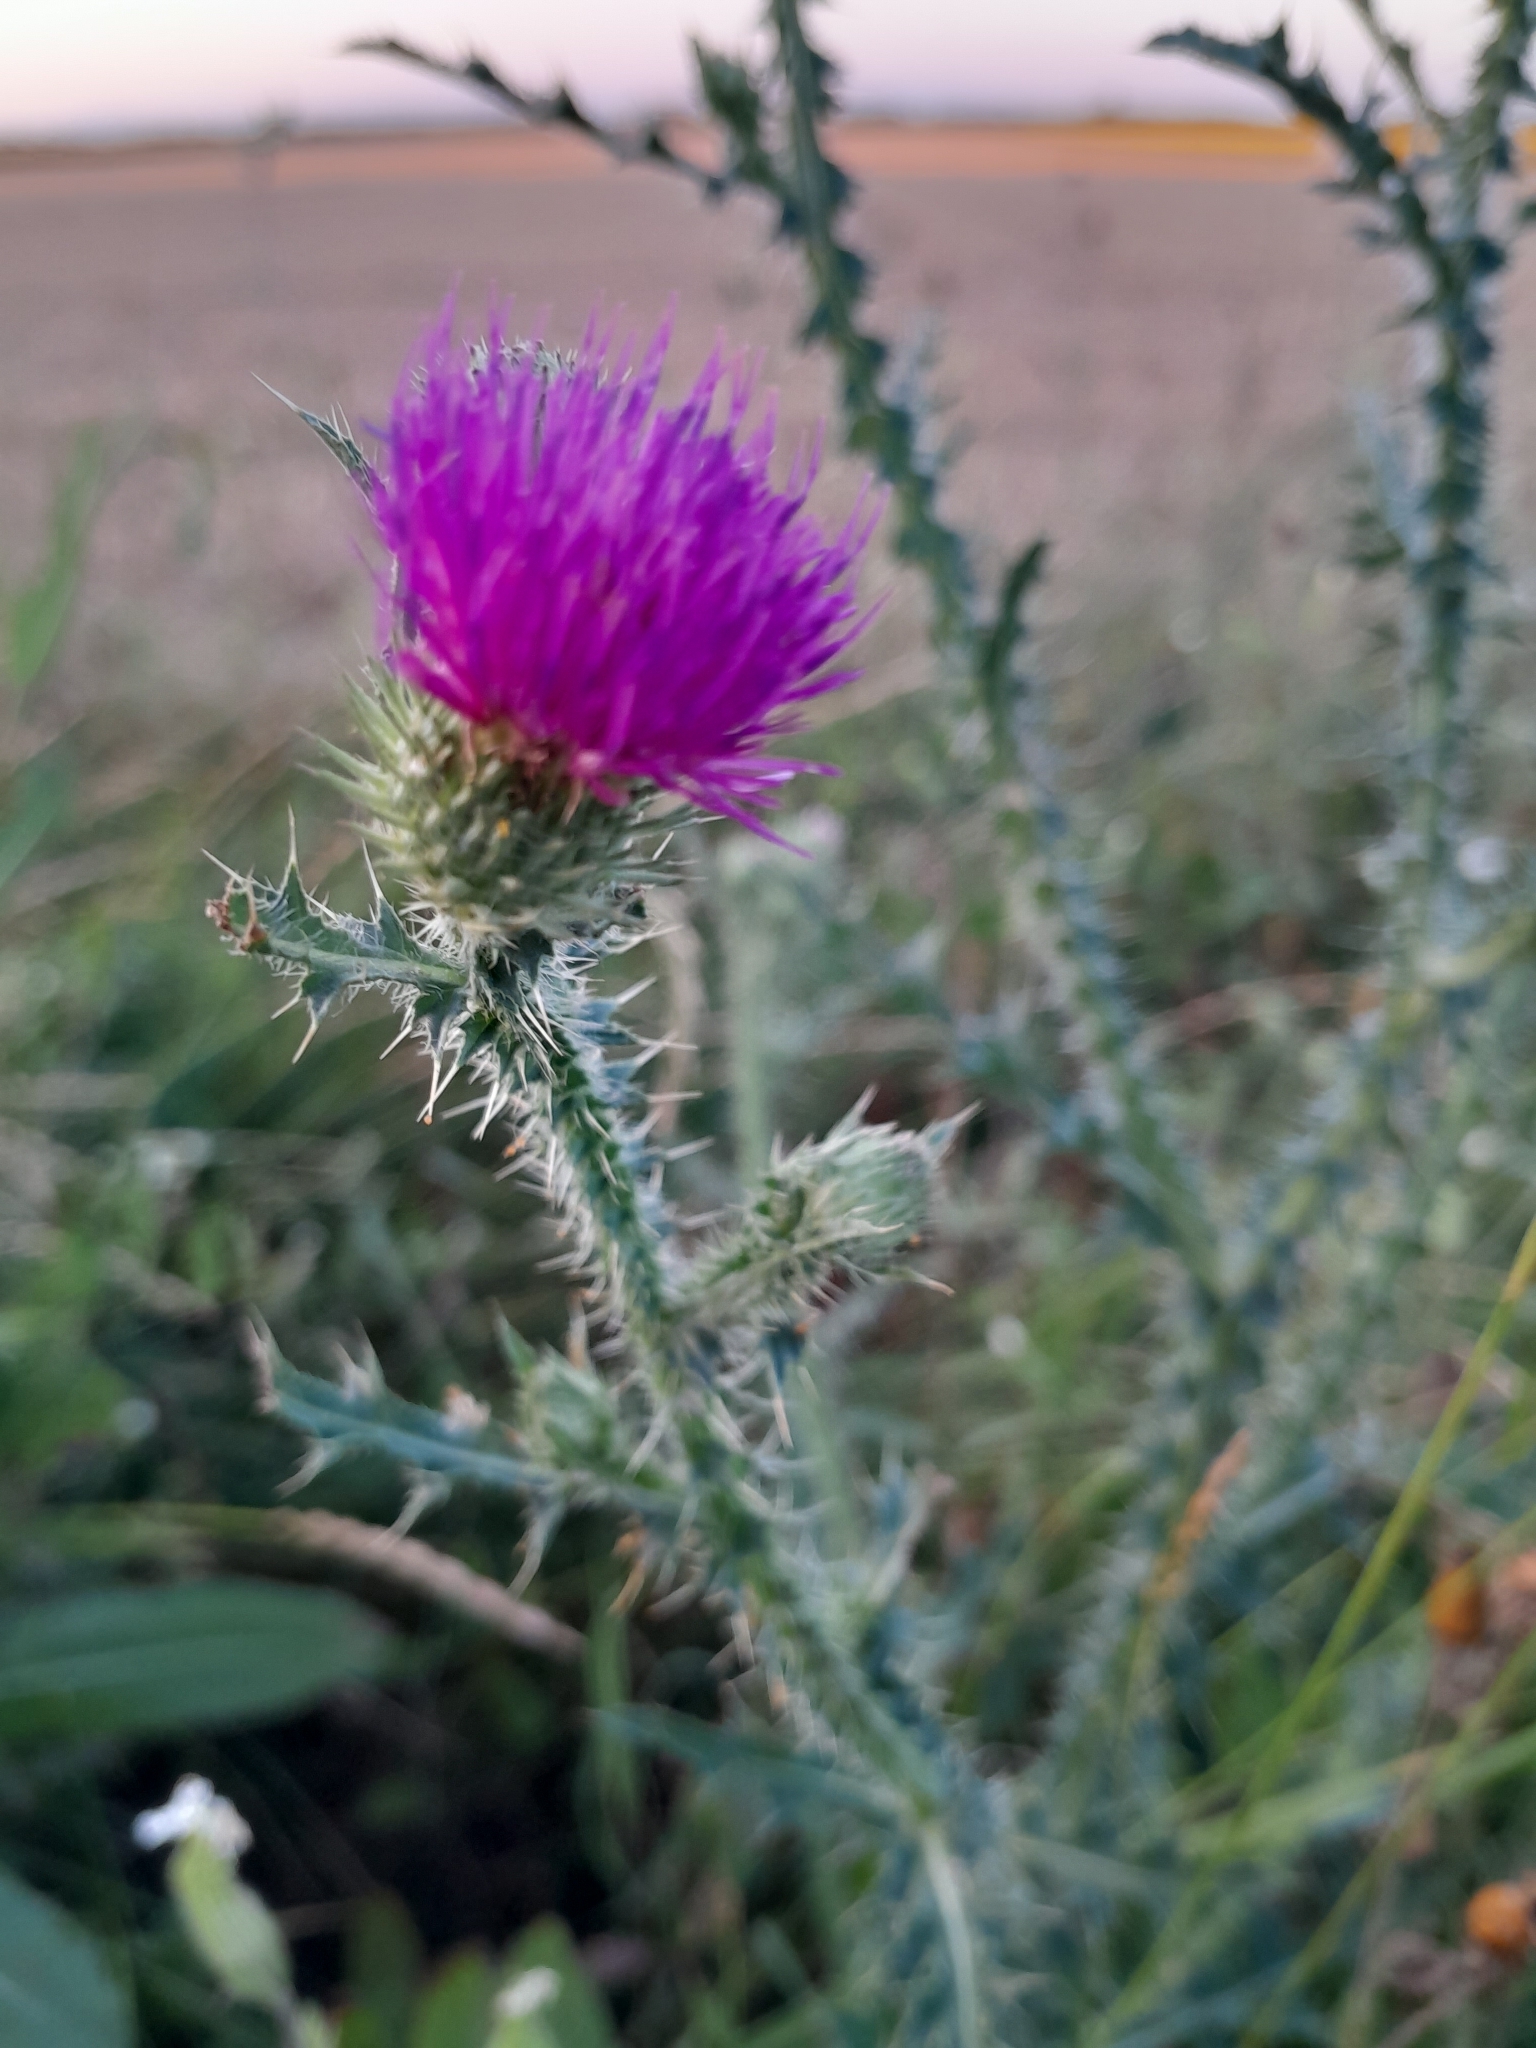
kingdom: Plantae
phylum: Tracheophyta
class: Magnoliopsida
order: Asterales
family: Asteraceae
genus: Carduus
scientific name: Carduus acanthoides
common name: Plumeless thistle
